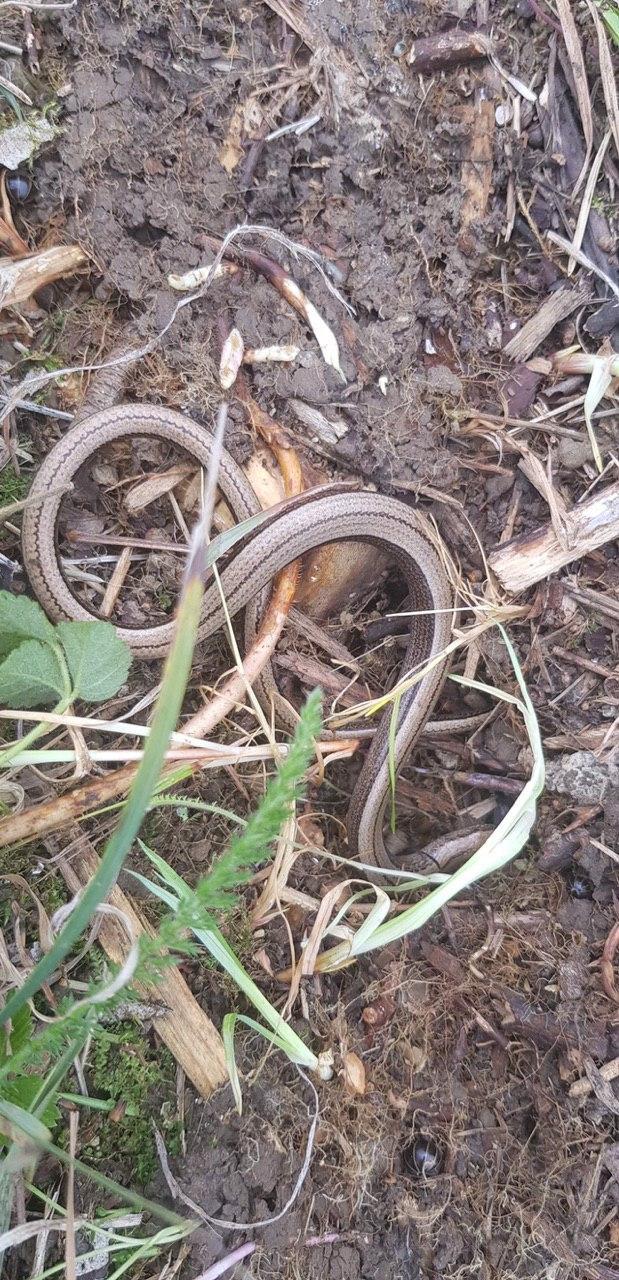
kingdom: Animalia
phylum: Chordata
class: Squamata
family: Anguidae
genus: Anguis
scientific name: Anguis fragilis
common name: Slow worm
